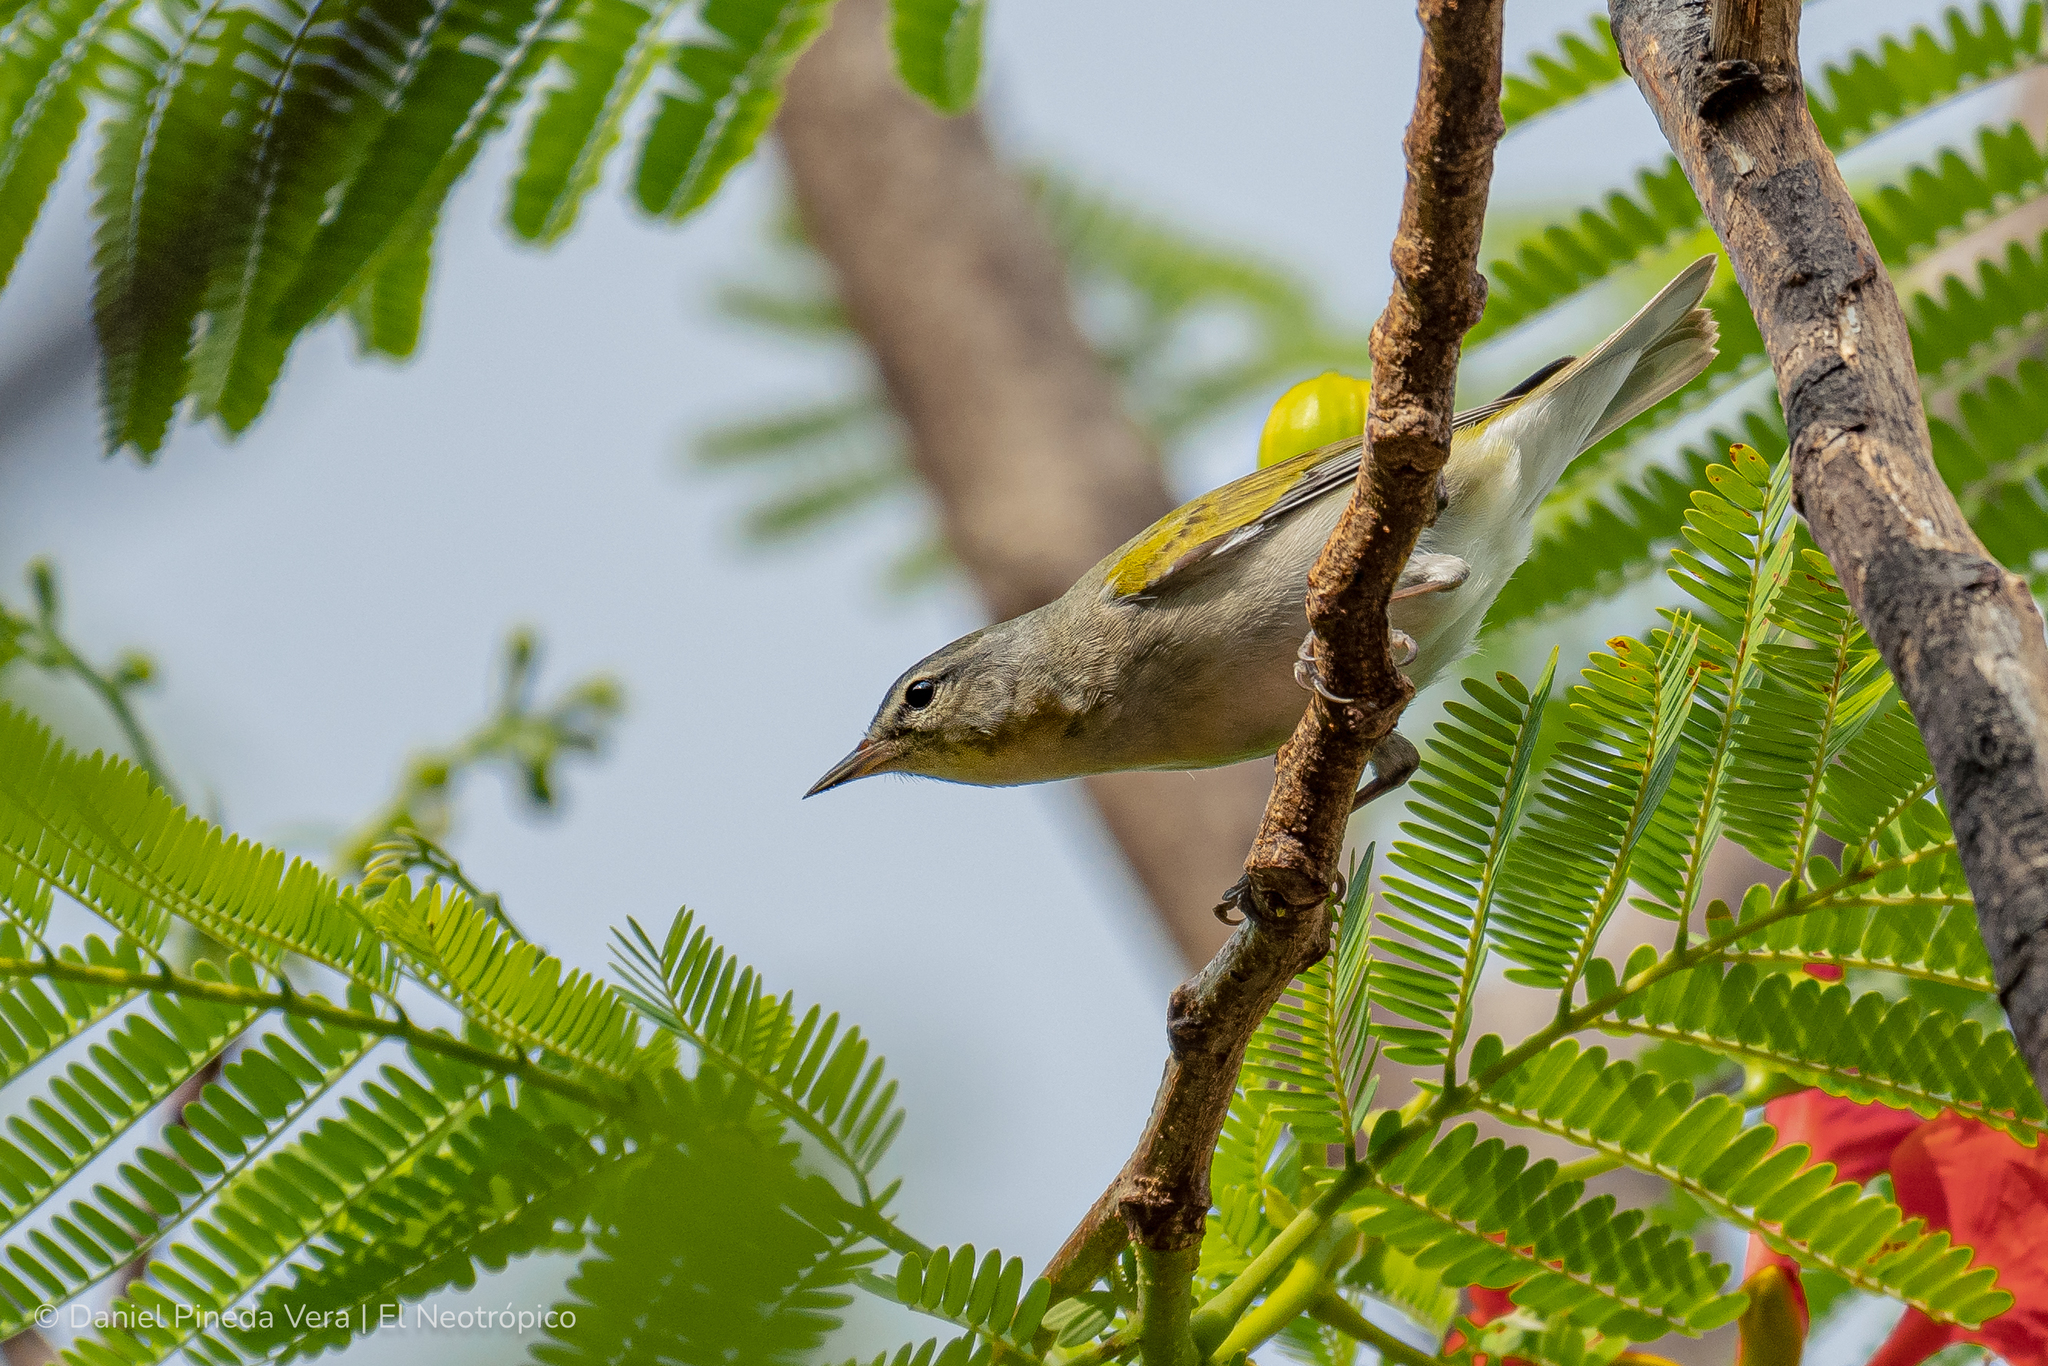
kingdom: Animalia
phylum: Chordata
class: Aves
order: Passeriformes
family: Parulidae
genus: Leiothlypis
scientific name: Leiothlypis peregrina
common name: Tennessee warbler
